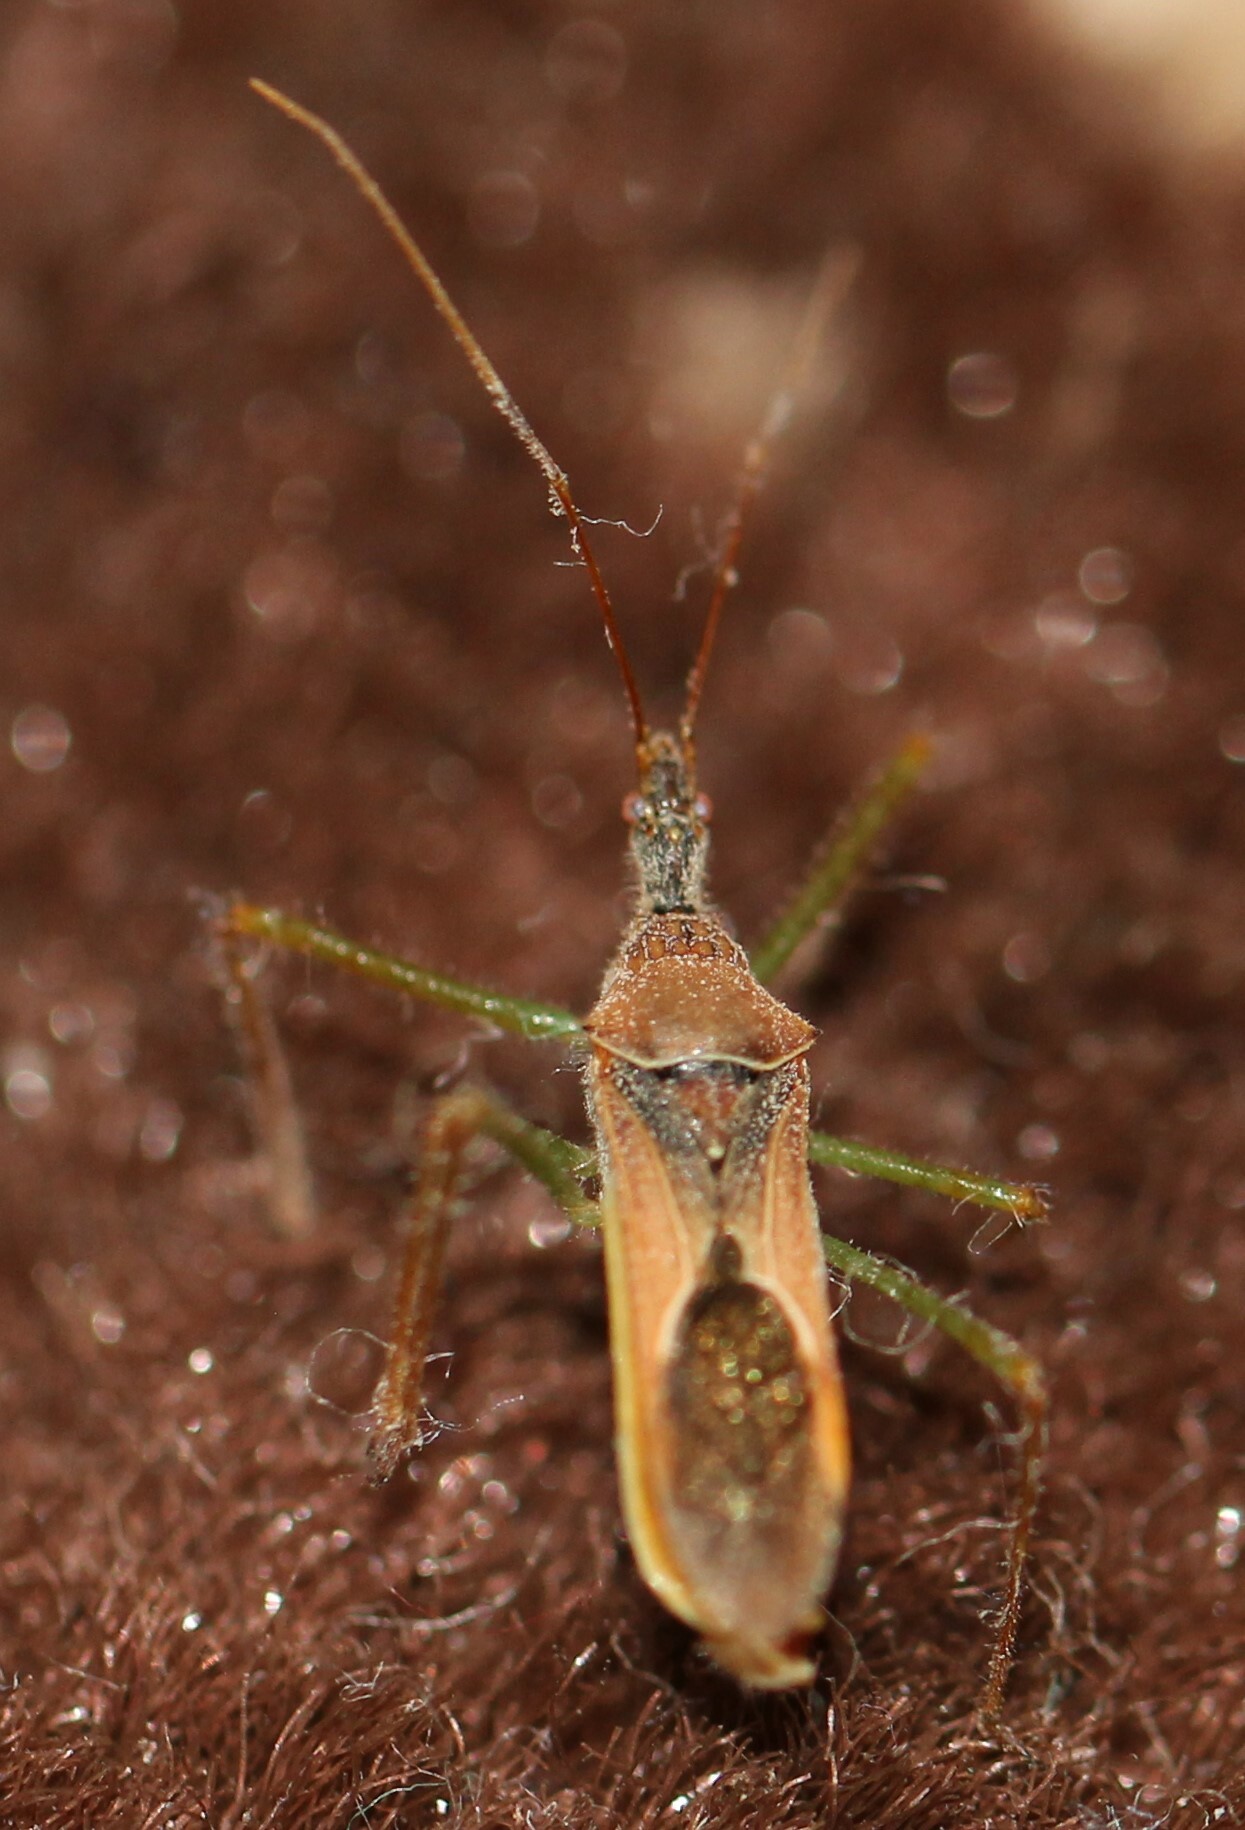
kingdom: Animalia
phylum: Arthropoda
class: Insecta
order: Hemiptera
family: Reduviidae
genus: Zelus
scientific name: Zelus renardii
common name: Assassin bug
